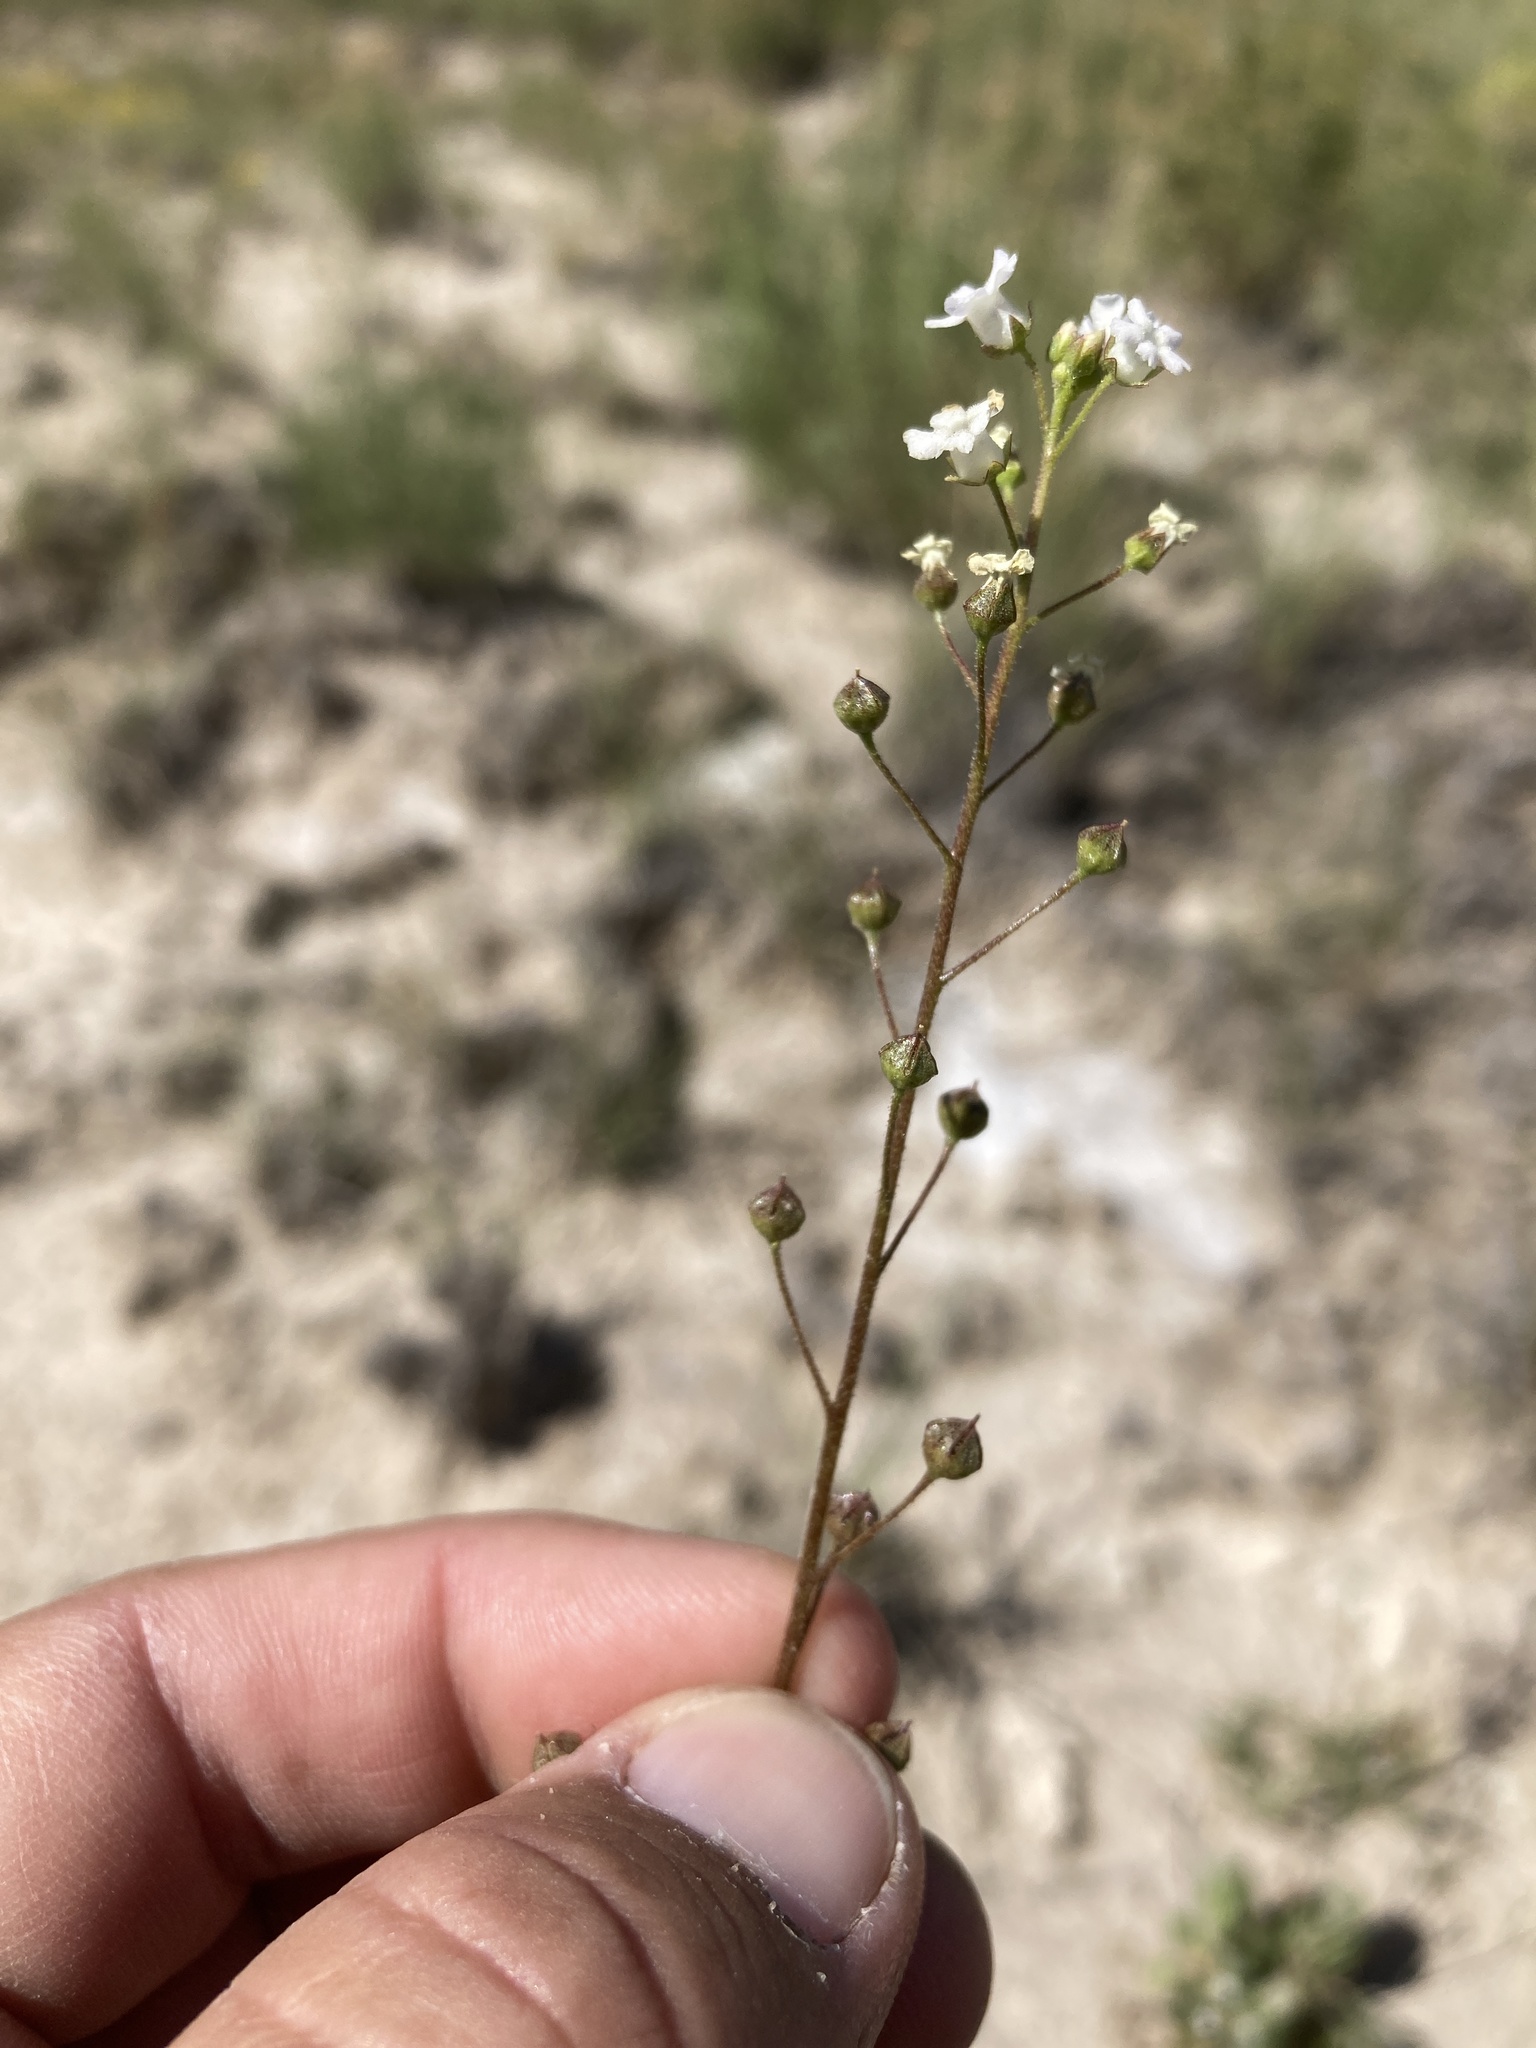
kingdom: Plantae
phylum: Tracheophyta
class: Magnoliopsida
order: Ericales
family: Primulaceae
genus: Samolus
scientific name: Samolus ebracteatus
